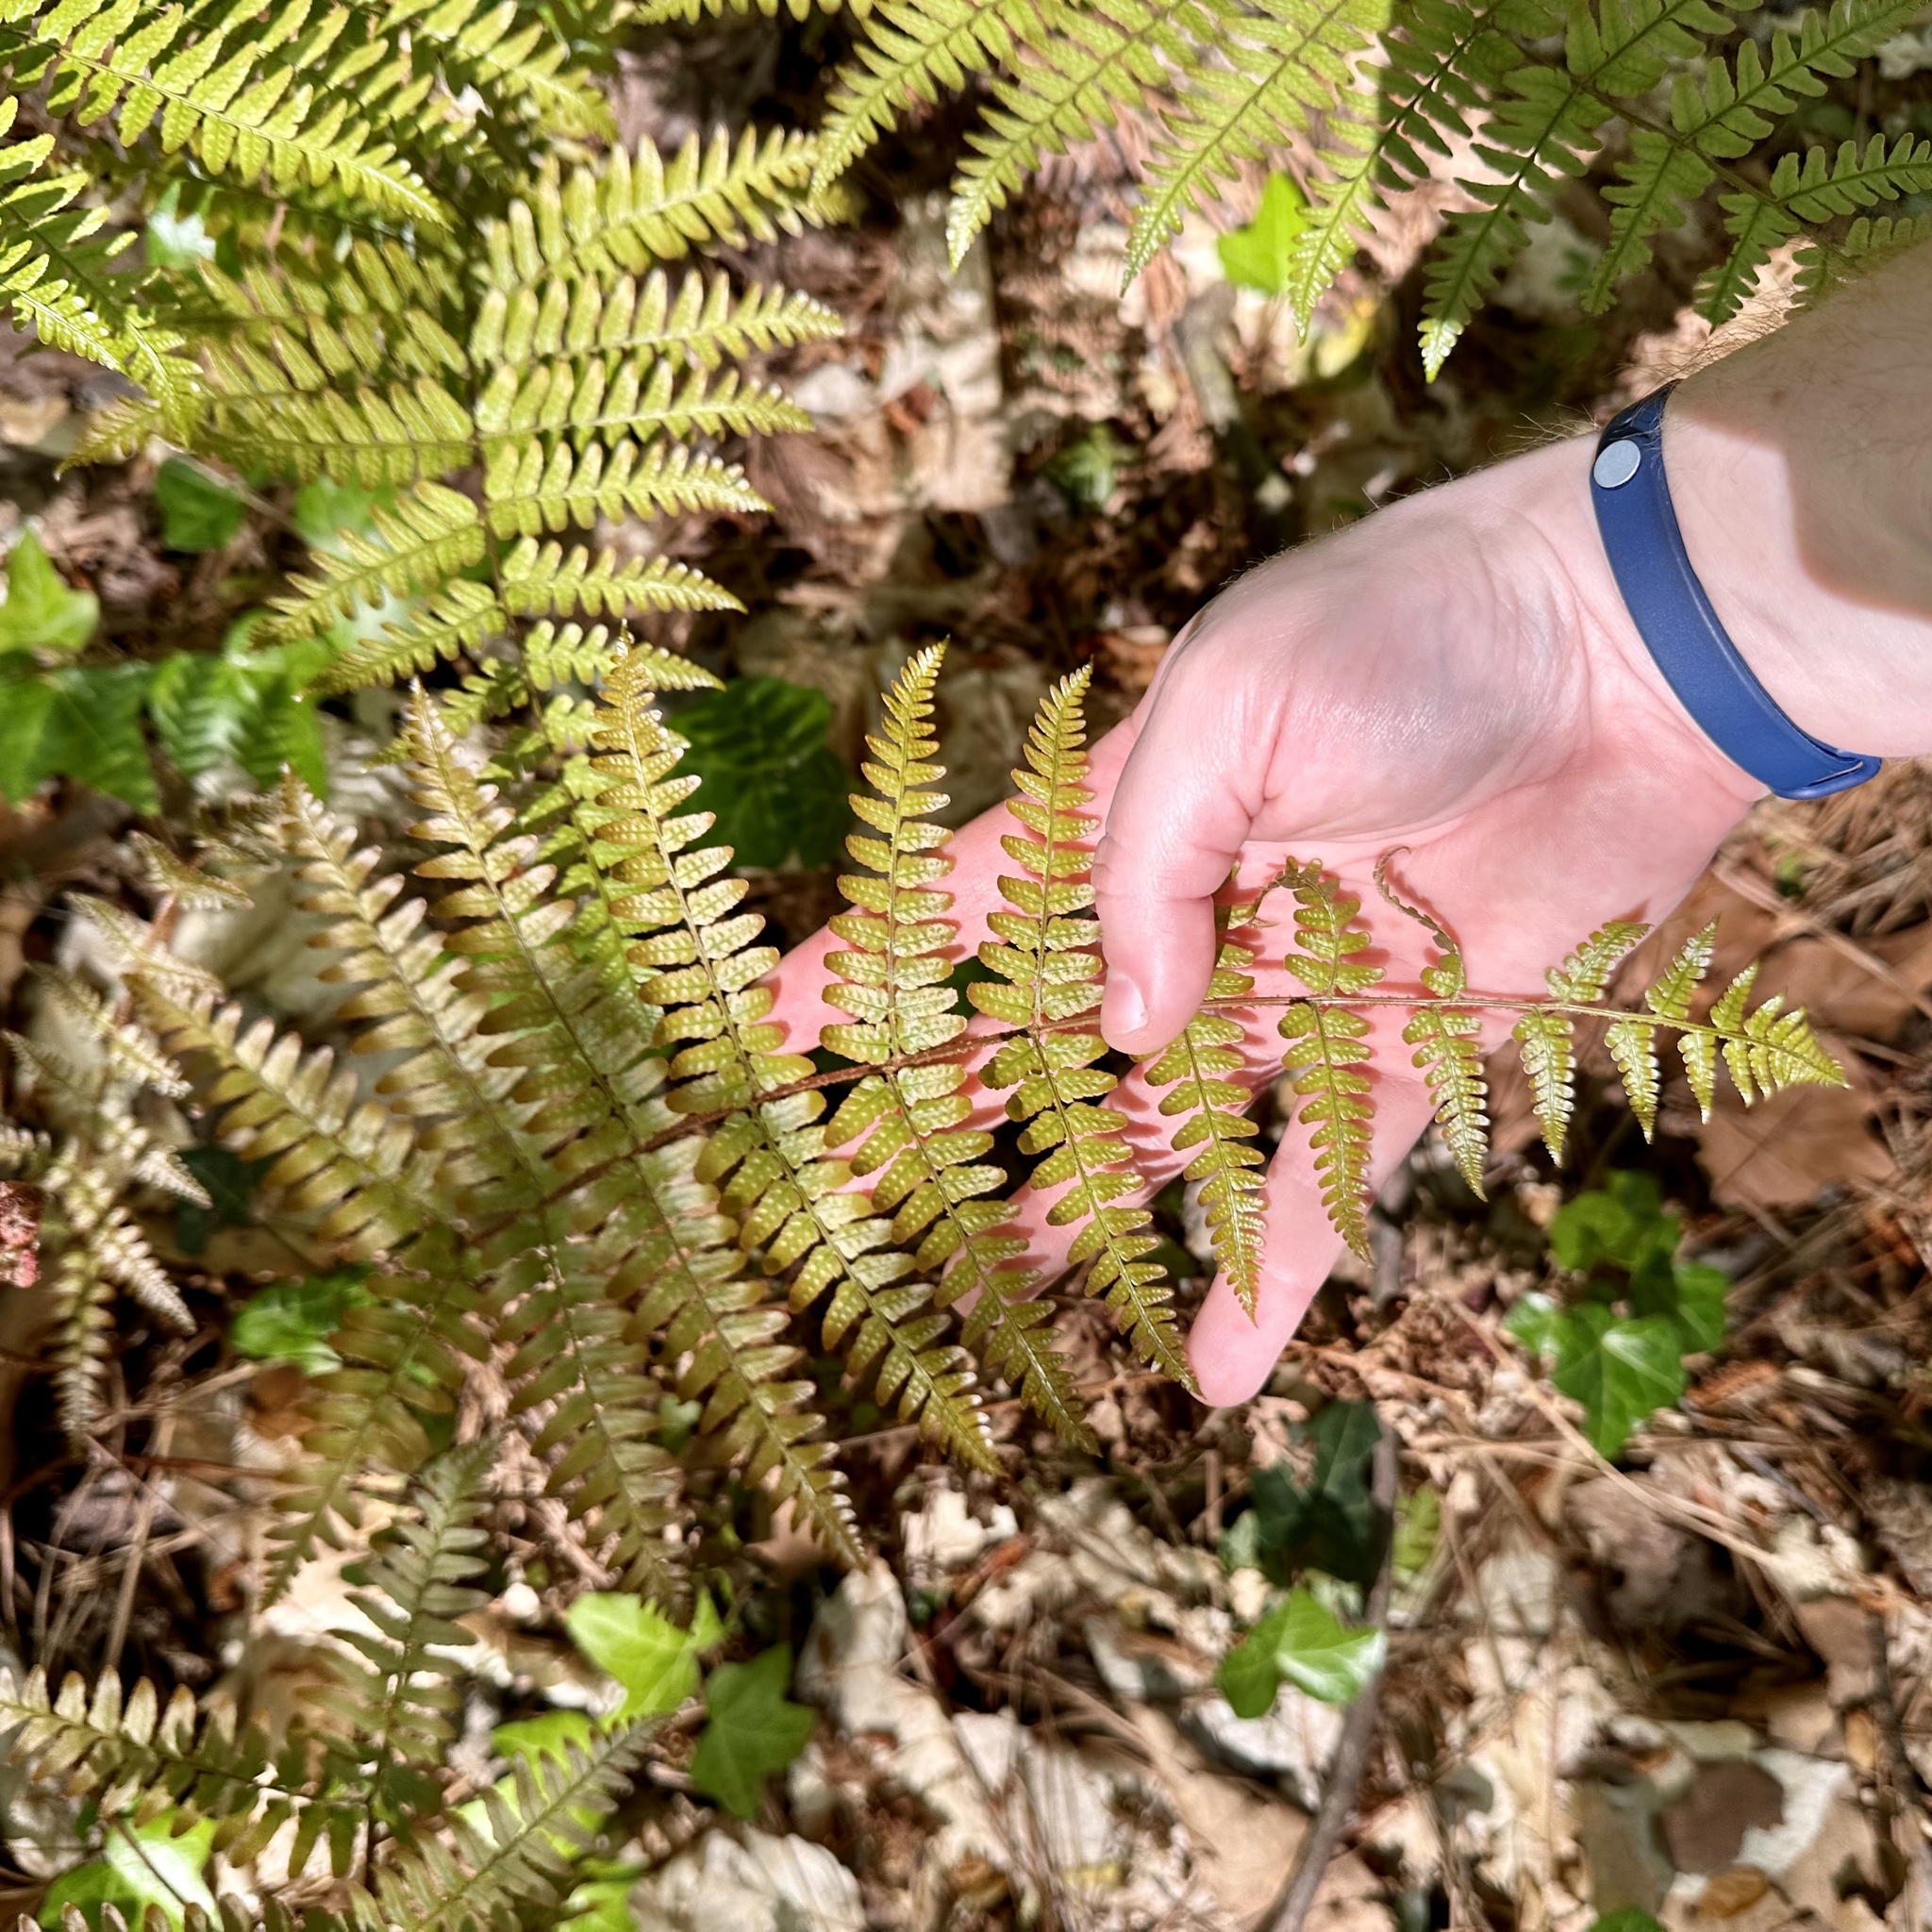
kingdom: Plantae
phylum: Tracheophyta
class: Polypodiopsida
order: Polypodiales
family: Dryopteridaceae
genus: Dryopteris
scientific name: Dryopteris erythrosora
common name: Autumn fern
